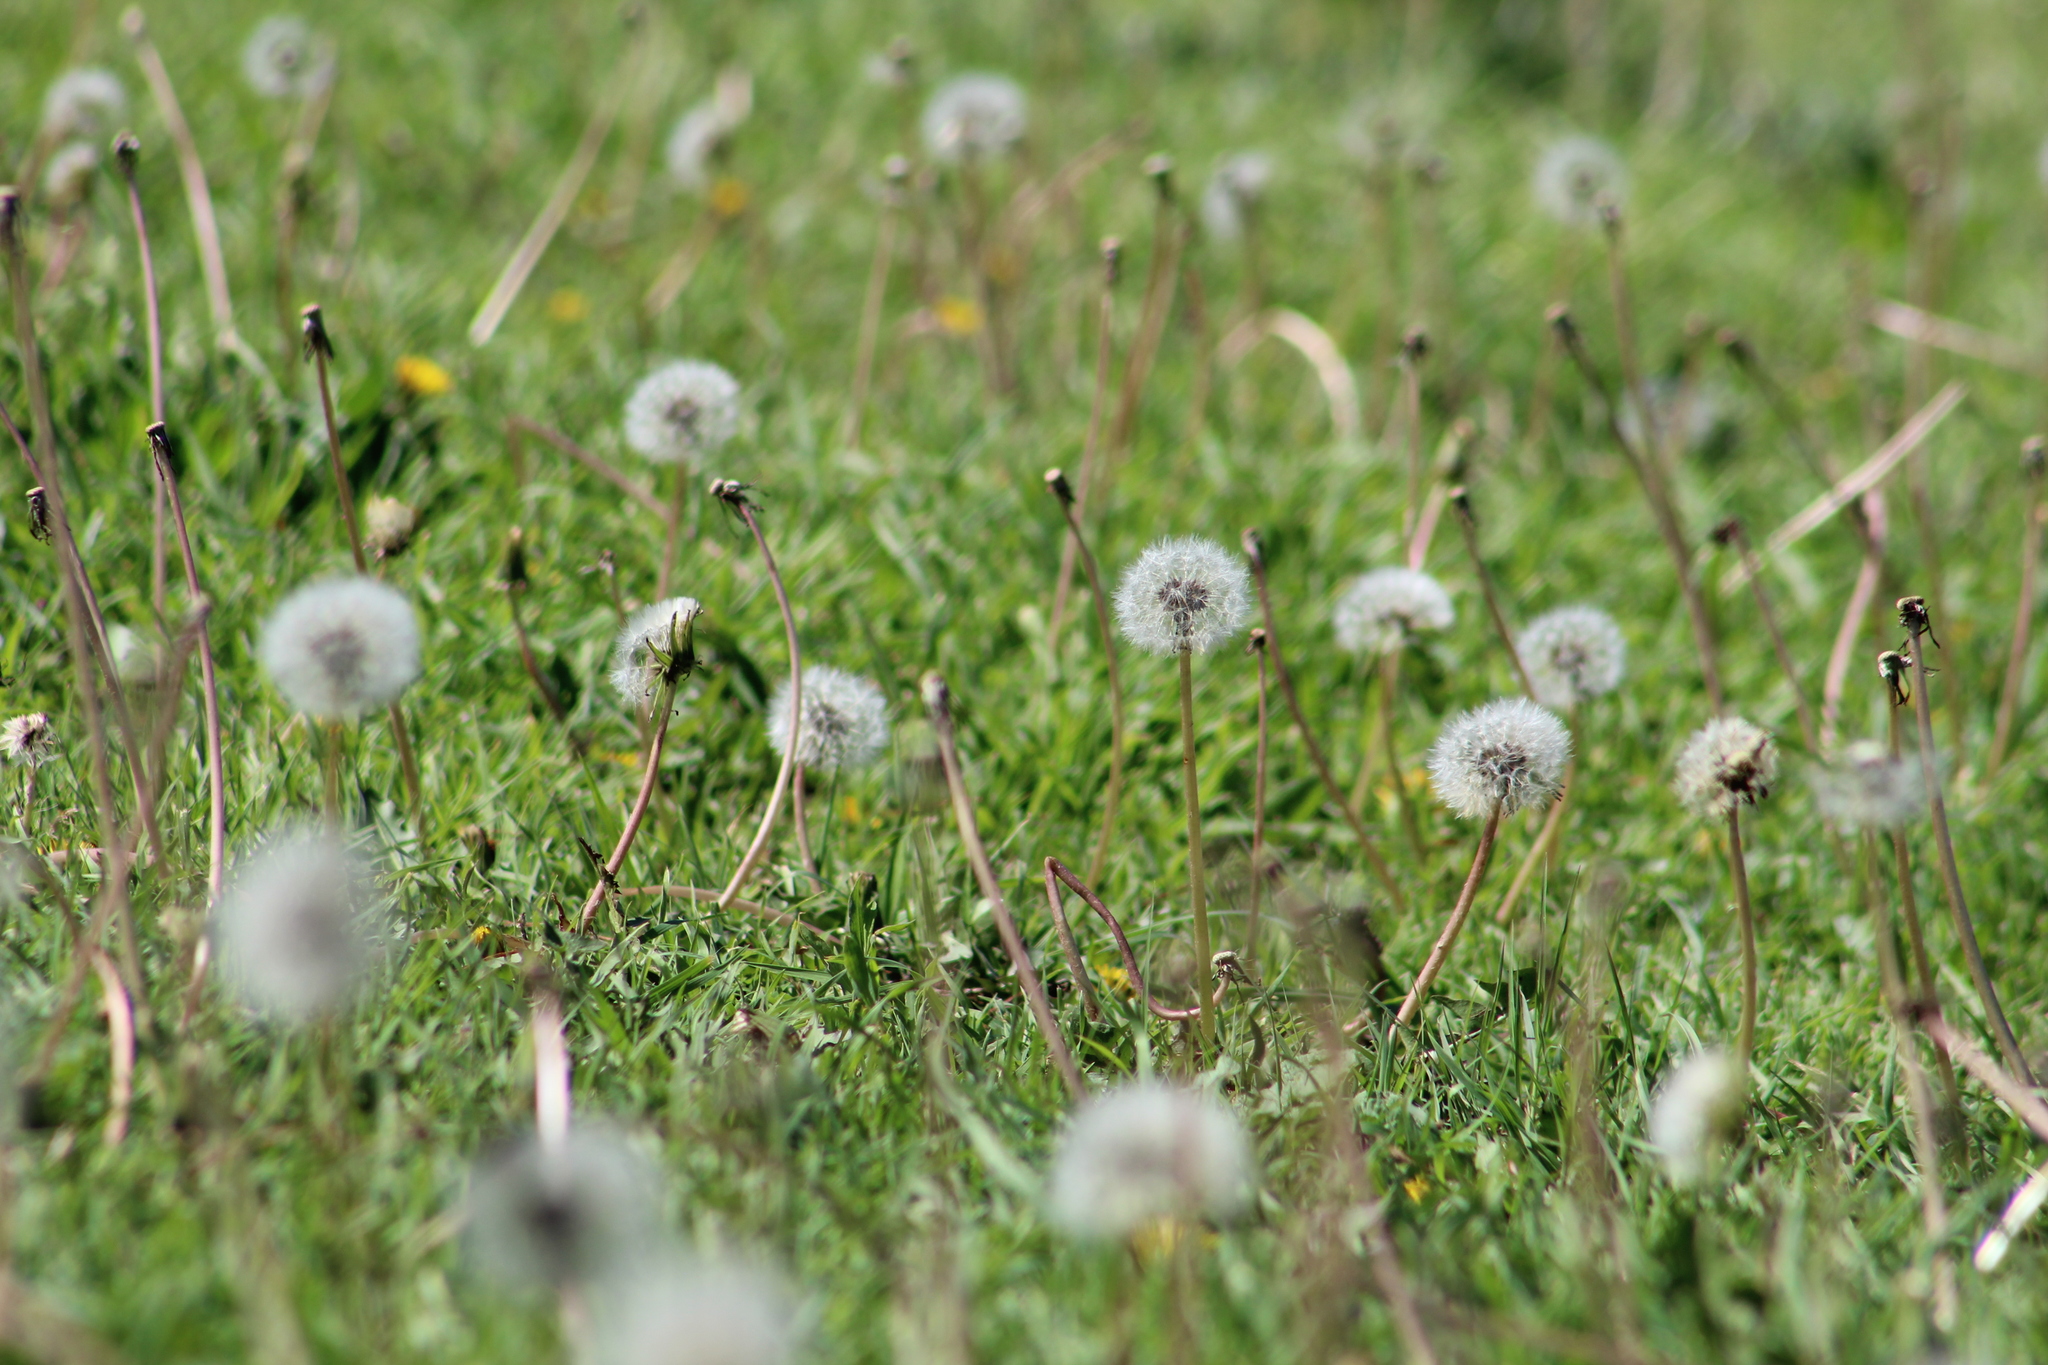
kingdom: Plantae
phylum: Tracheophyta
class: Magnoliopsida
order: Asterales
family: Asteraceae
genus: Taraxacum
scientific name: Taraxacum officinale
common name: Common dandelion
